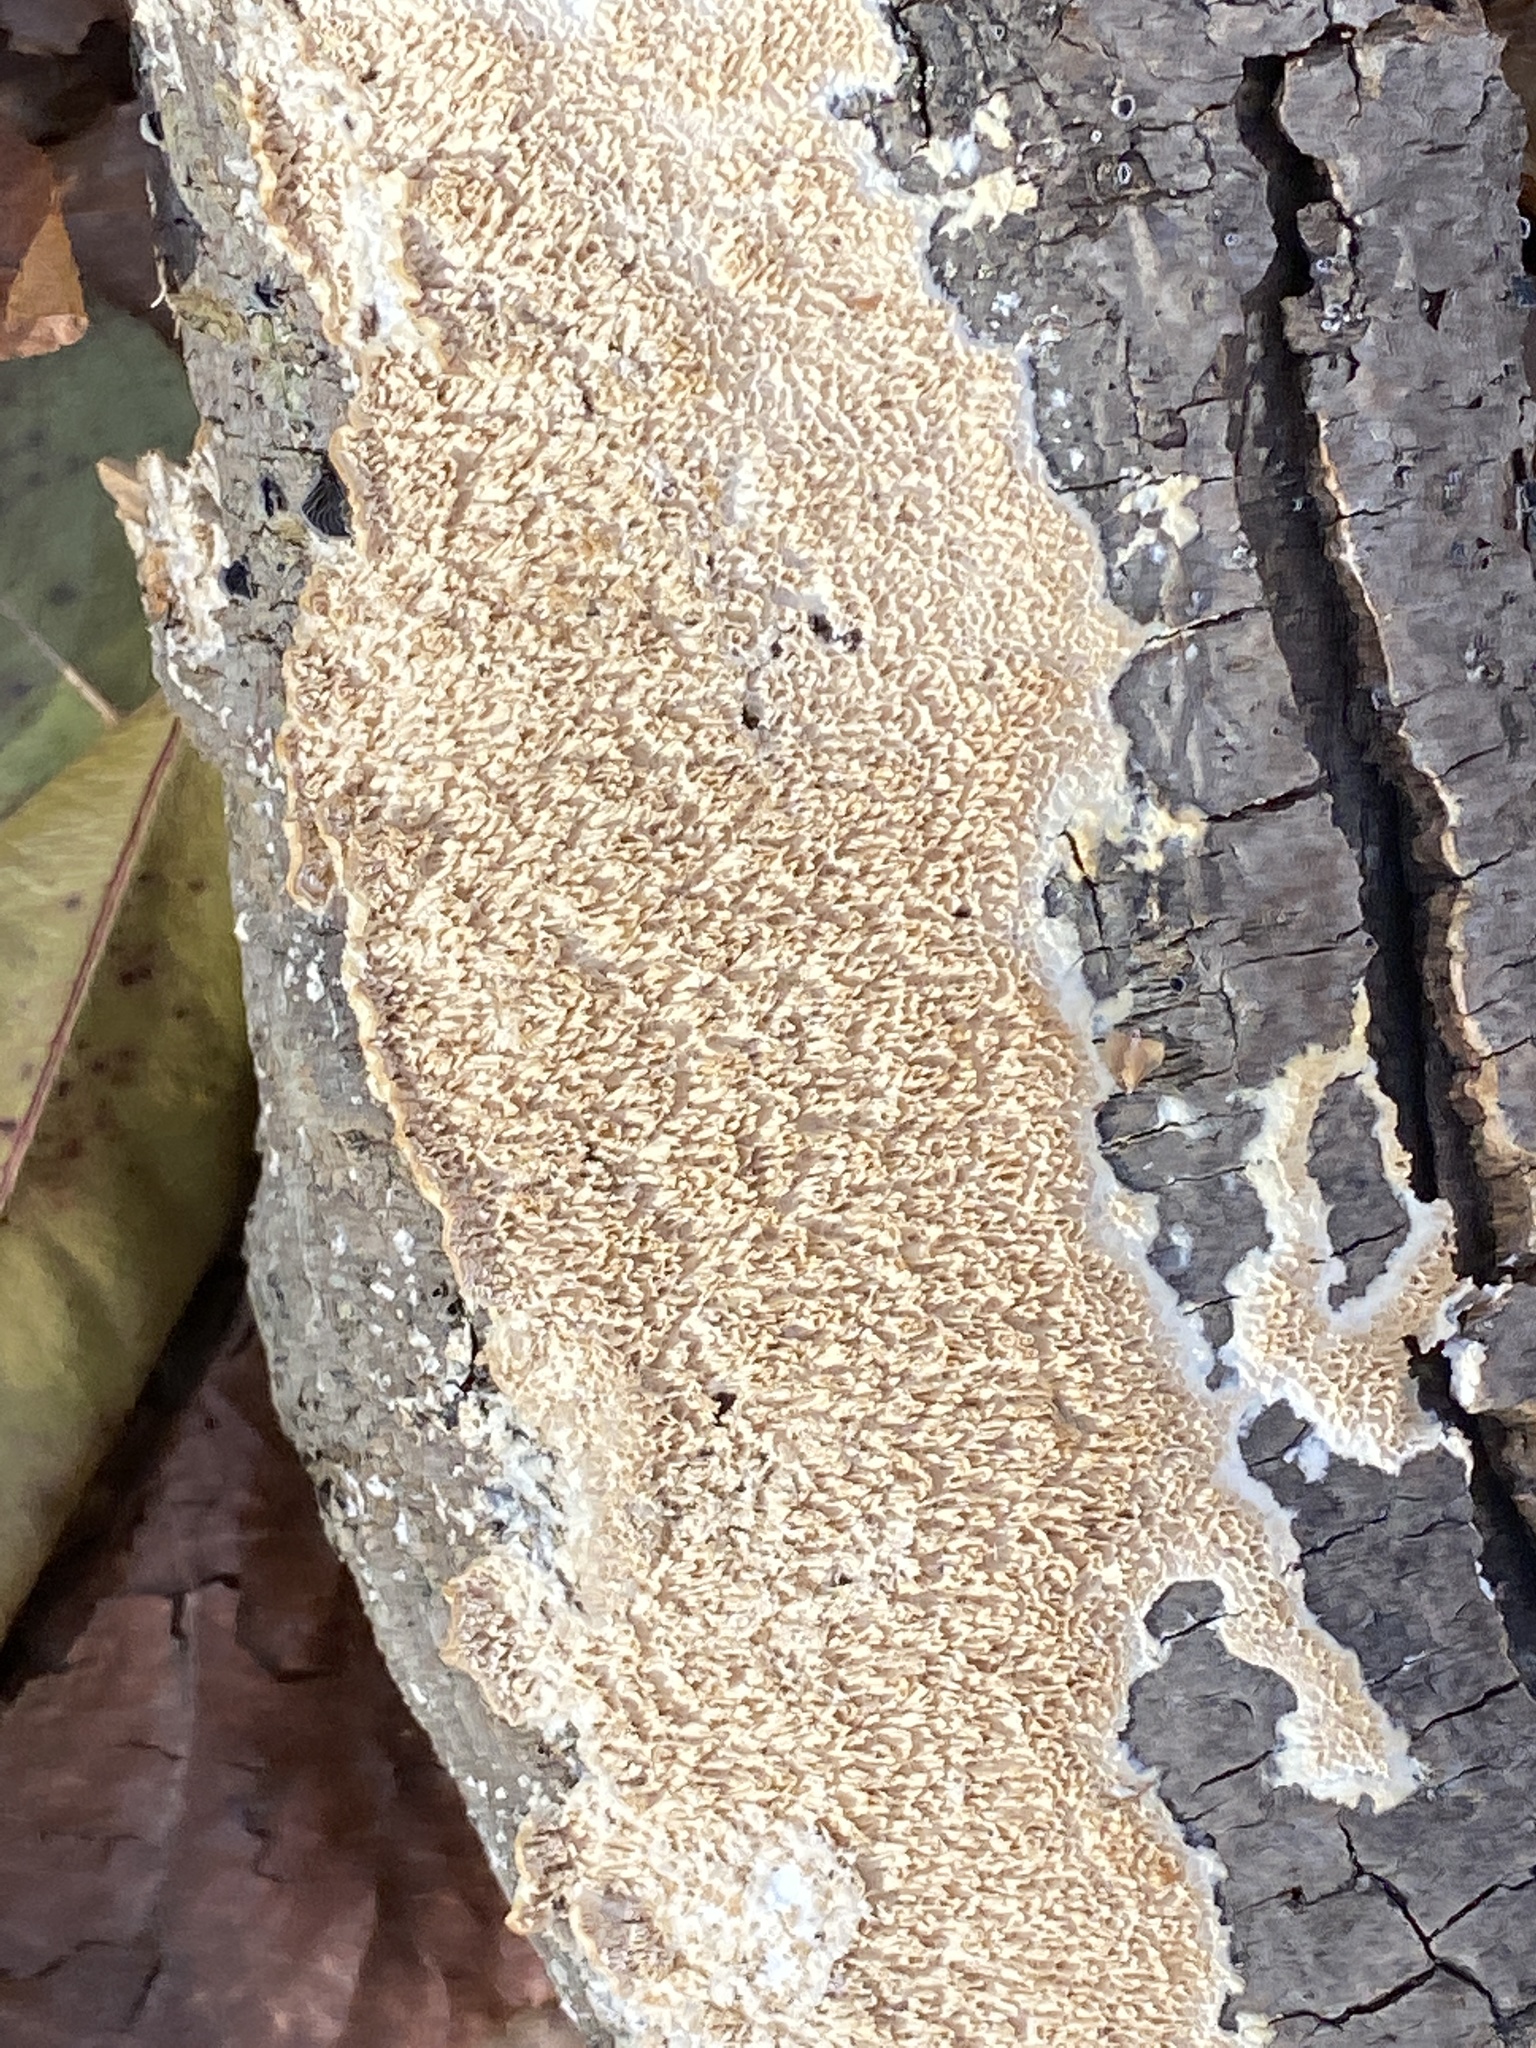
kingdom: Fungi
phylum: Basidiomycota
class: Agaricomycetes
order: Polyporales
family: Irpicaceae
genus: Irpex
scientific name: Irpex lacteus
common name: Milk-white toothed polypore
